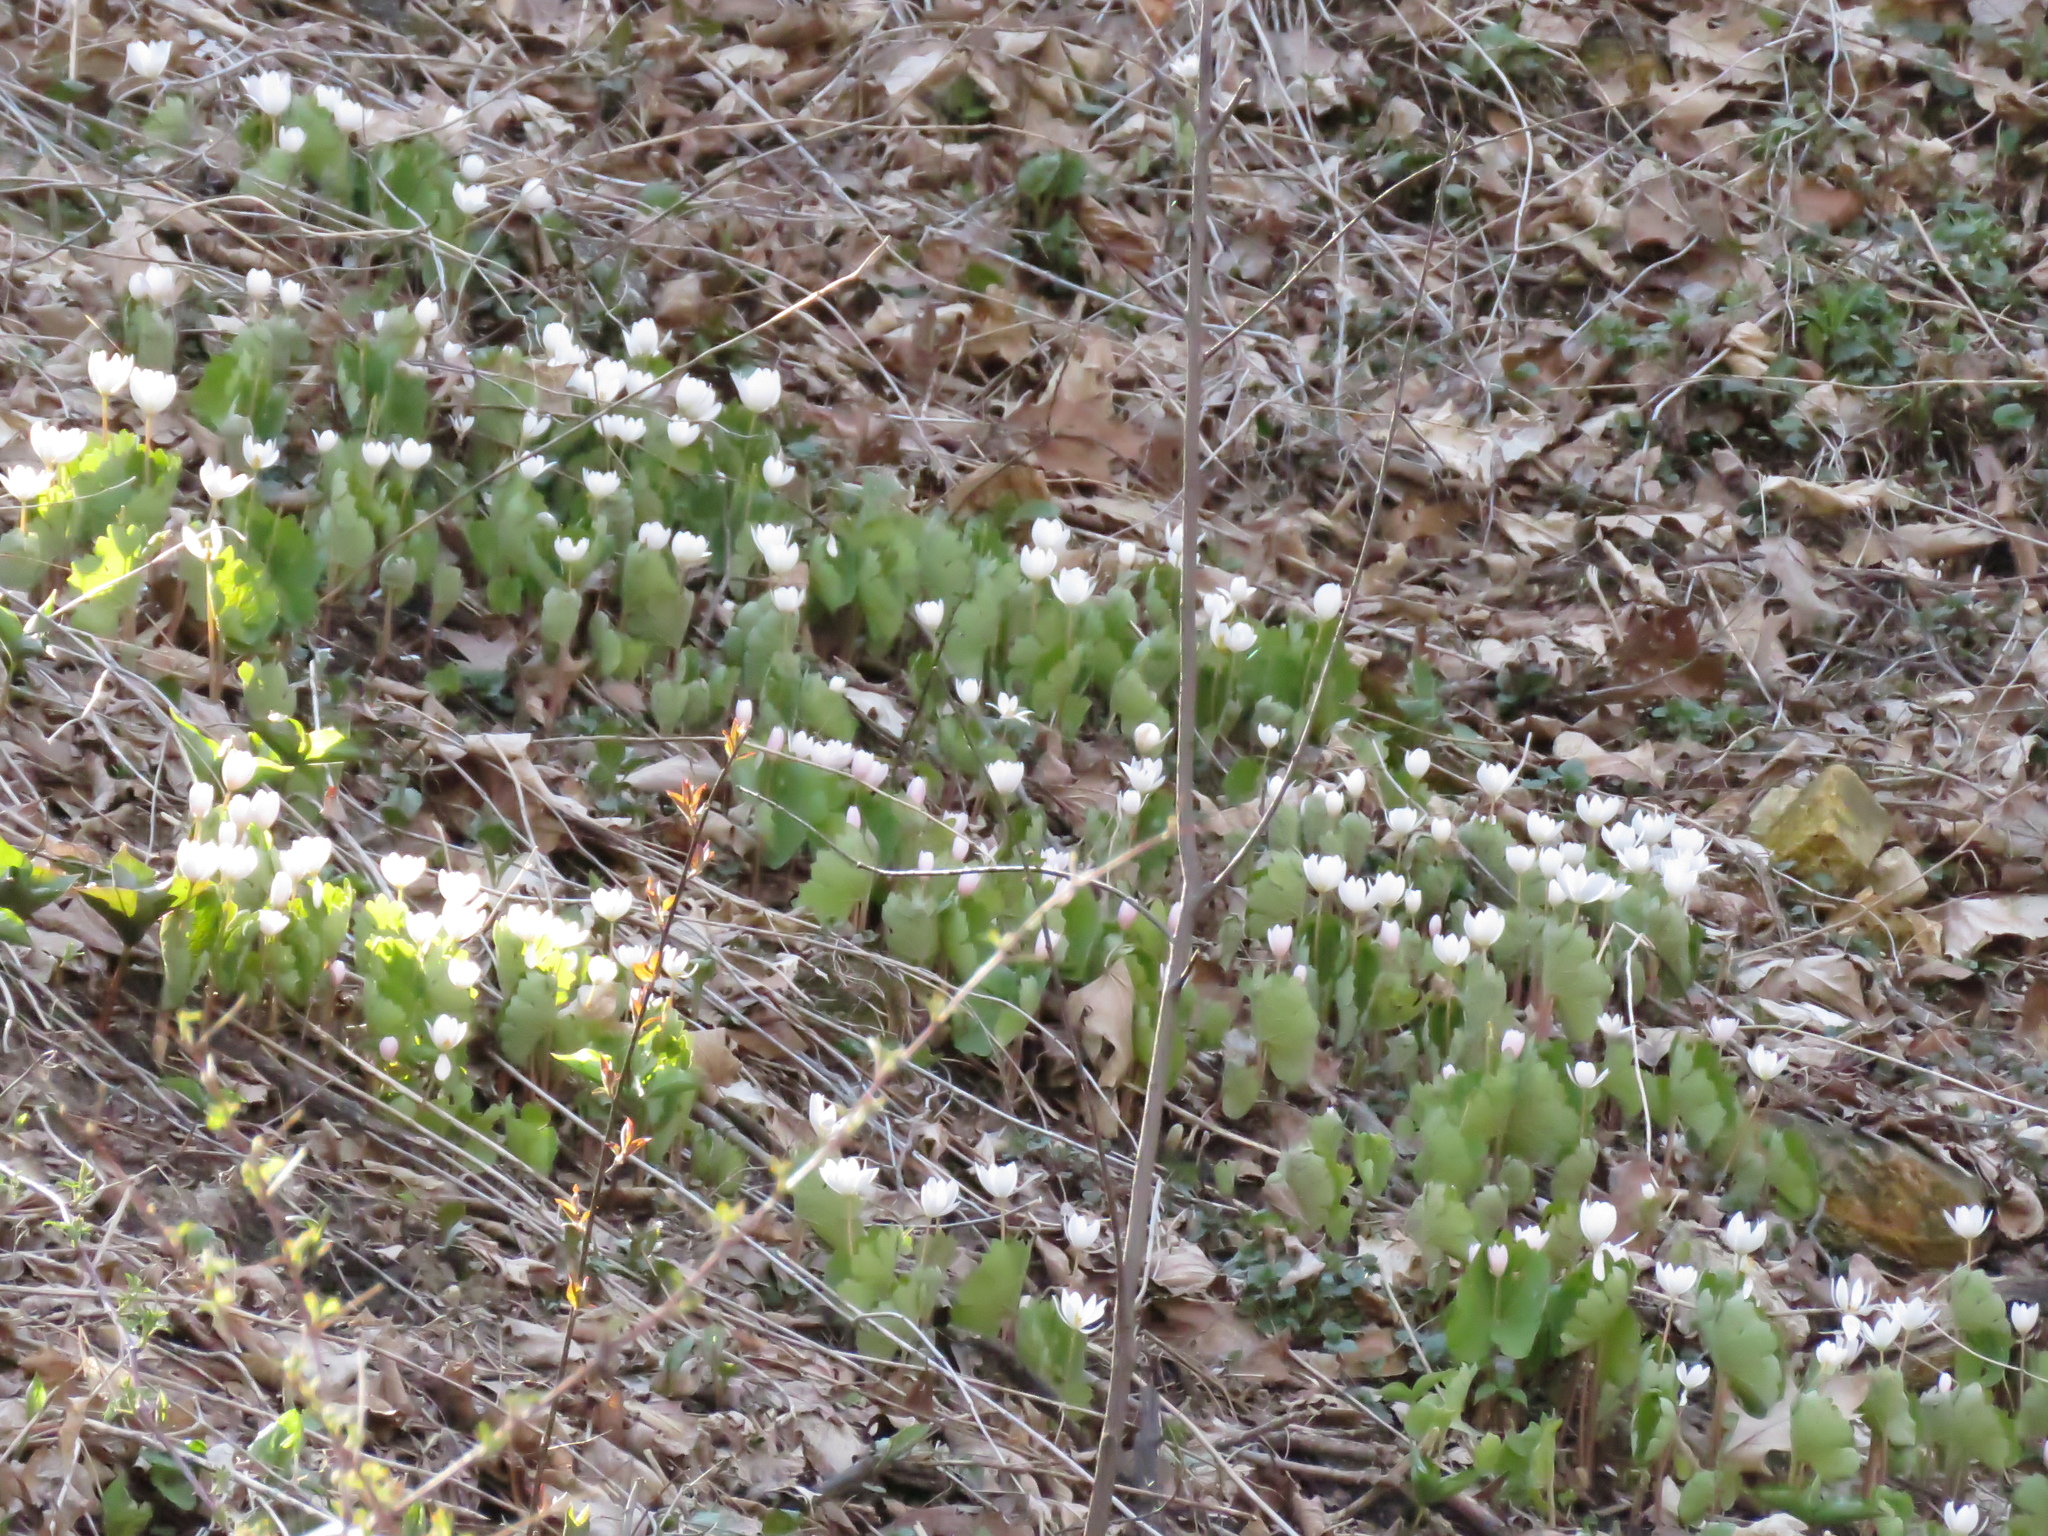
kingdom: Plantae
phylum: Tracheophyta
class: Magnoliopsida
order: Ranunculales
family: Papaveraceae
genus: Sanguinaria
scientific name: Sanguinaria canadensis
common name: Bloodroot
